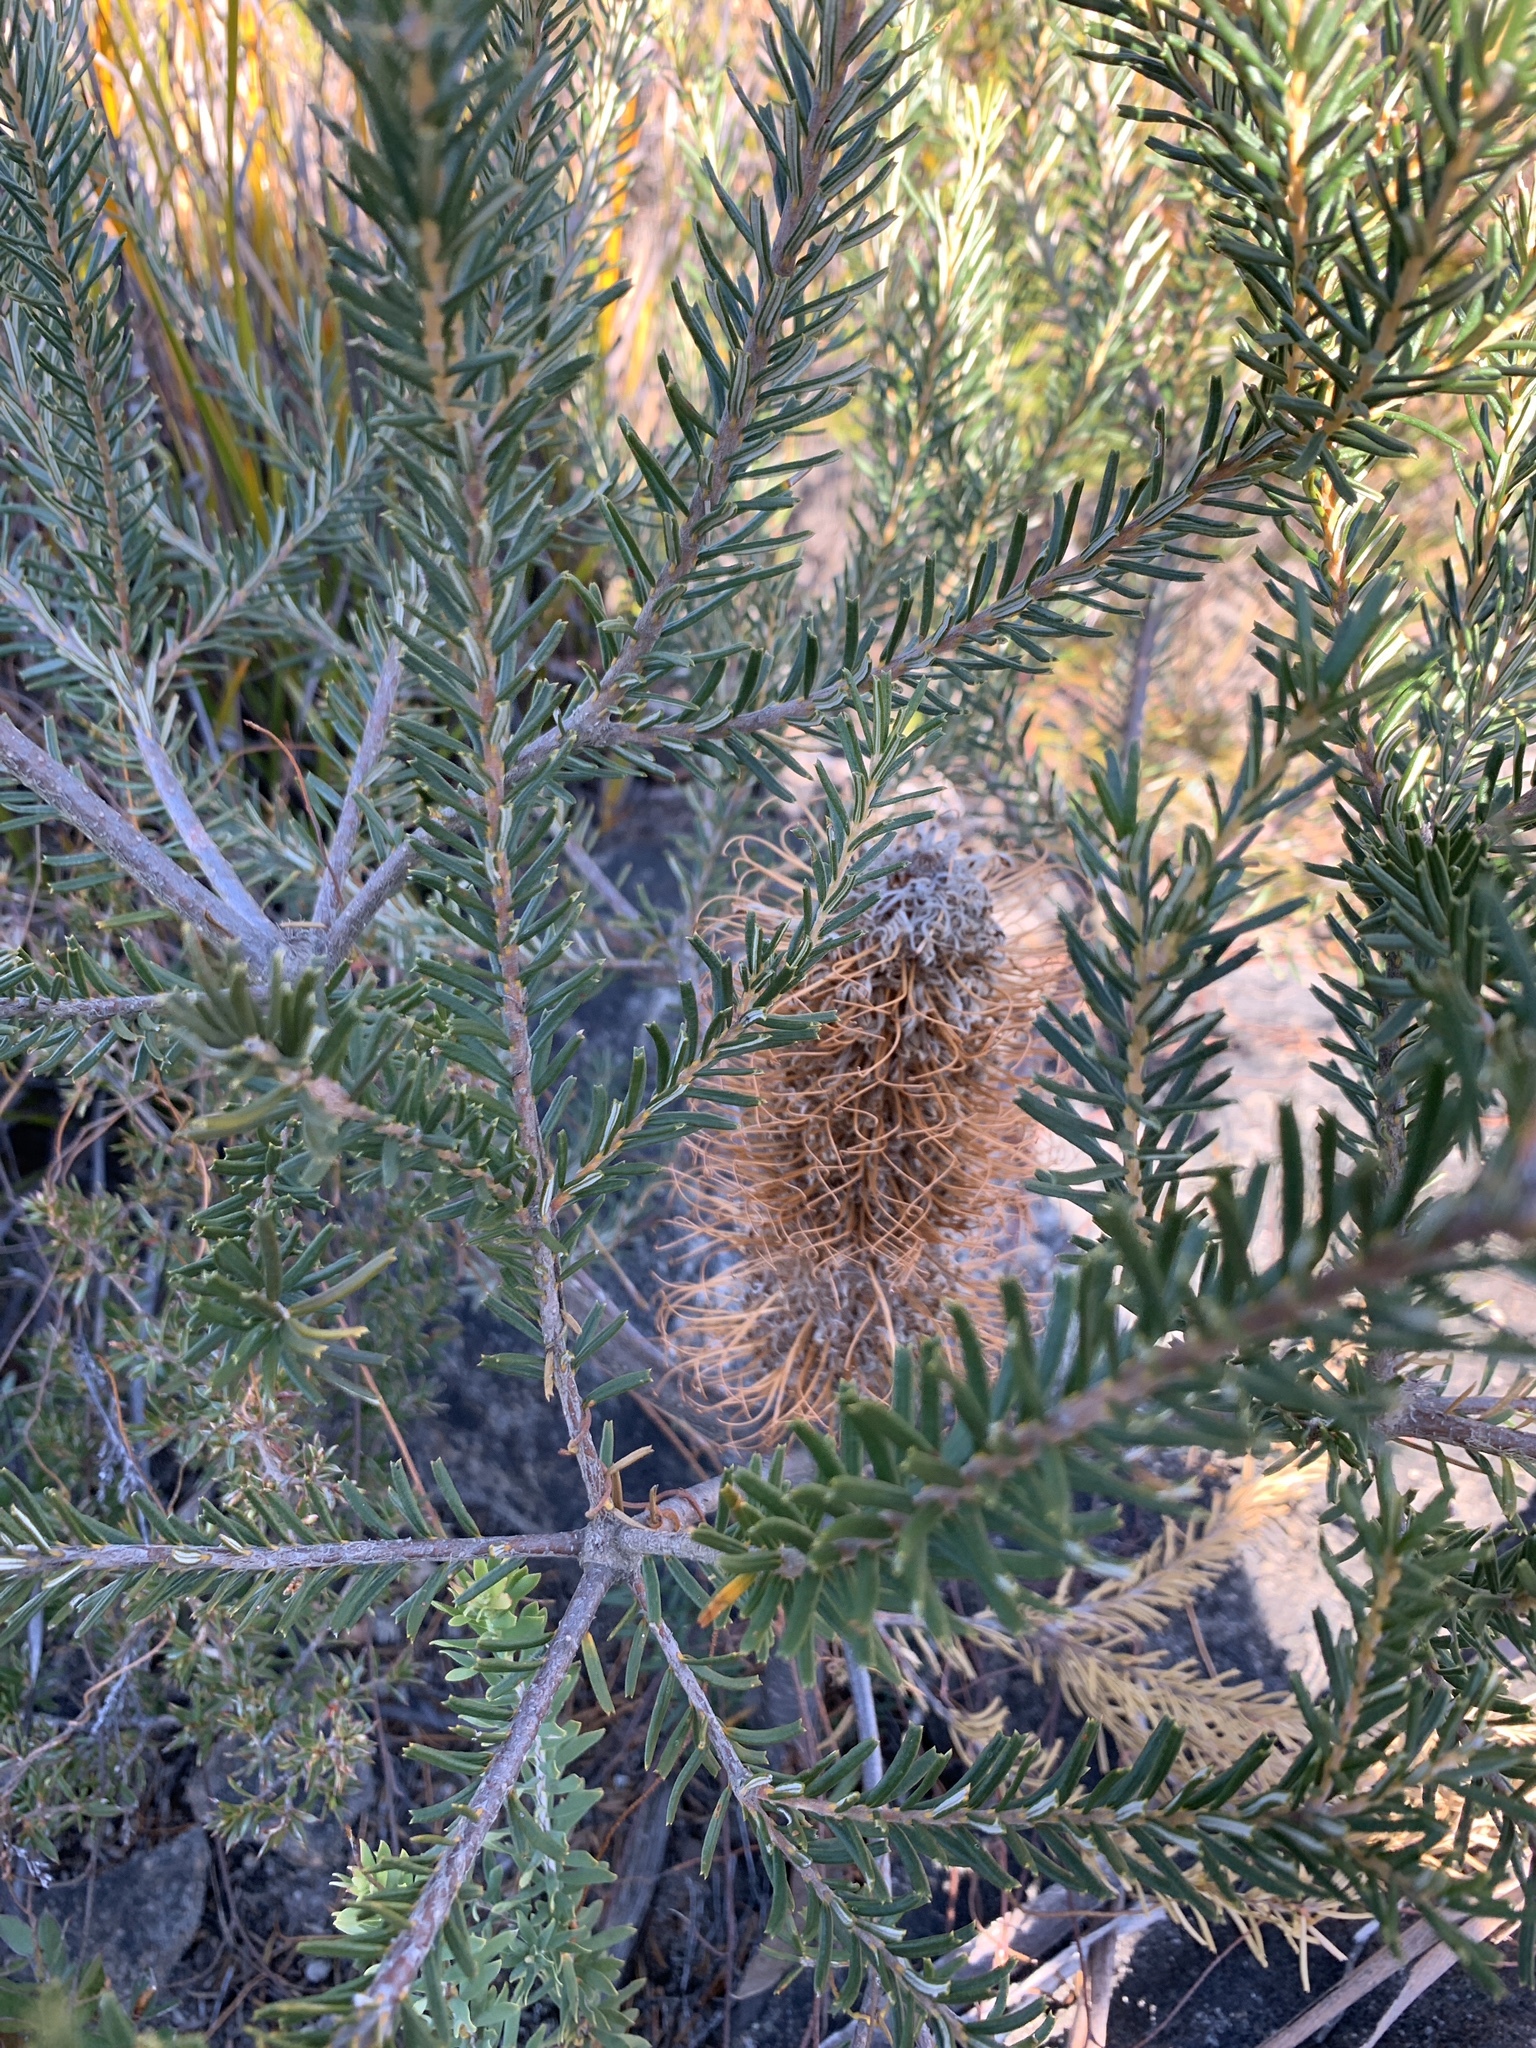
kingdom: Plantae
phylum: Tracheophyta
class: Magnoliopsida
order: Proteales
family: Proteaceae
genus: Banksia
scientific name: Banksia ericifolia
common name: Heath-leaf banksia
